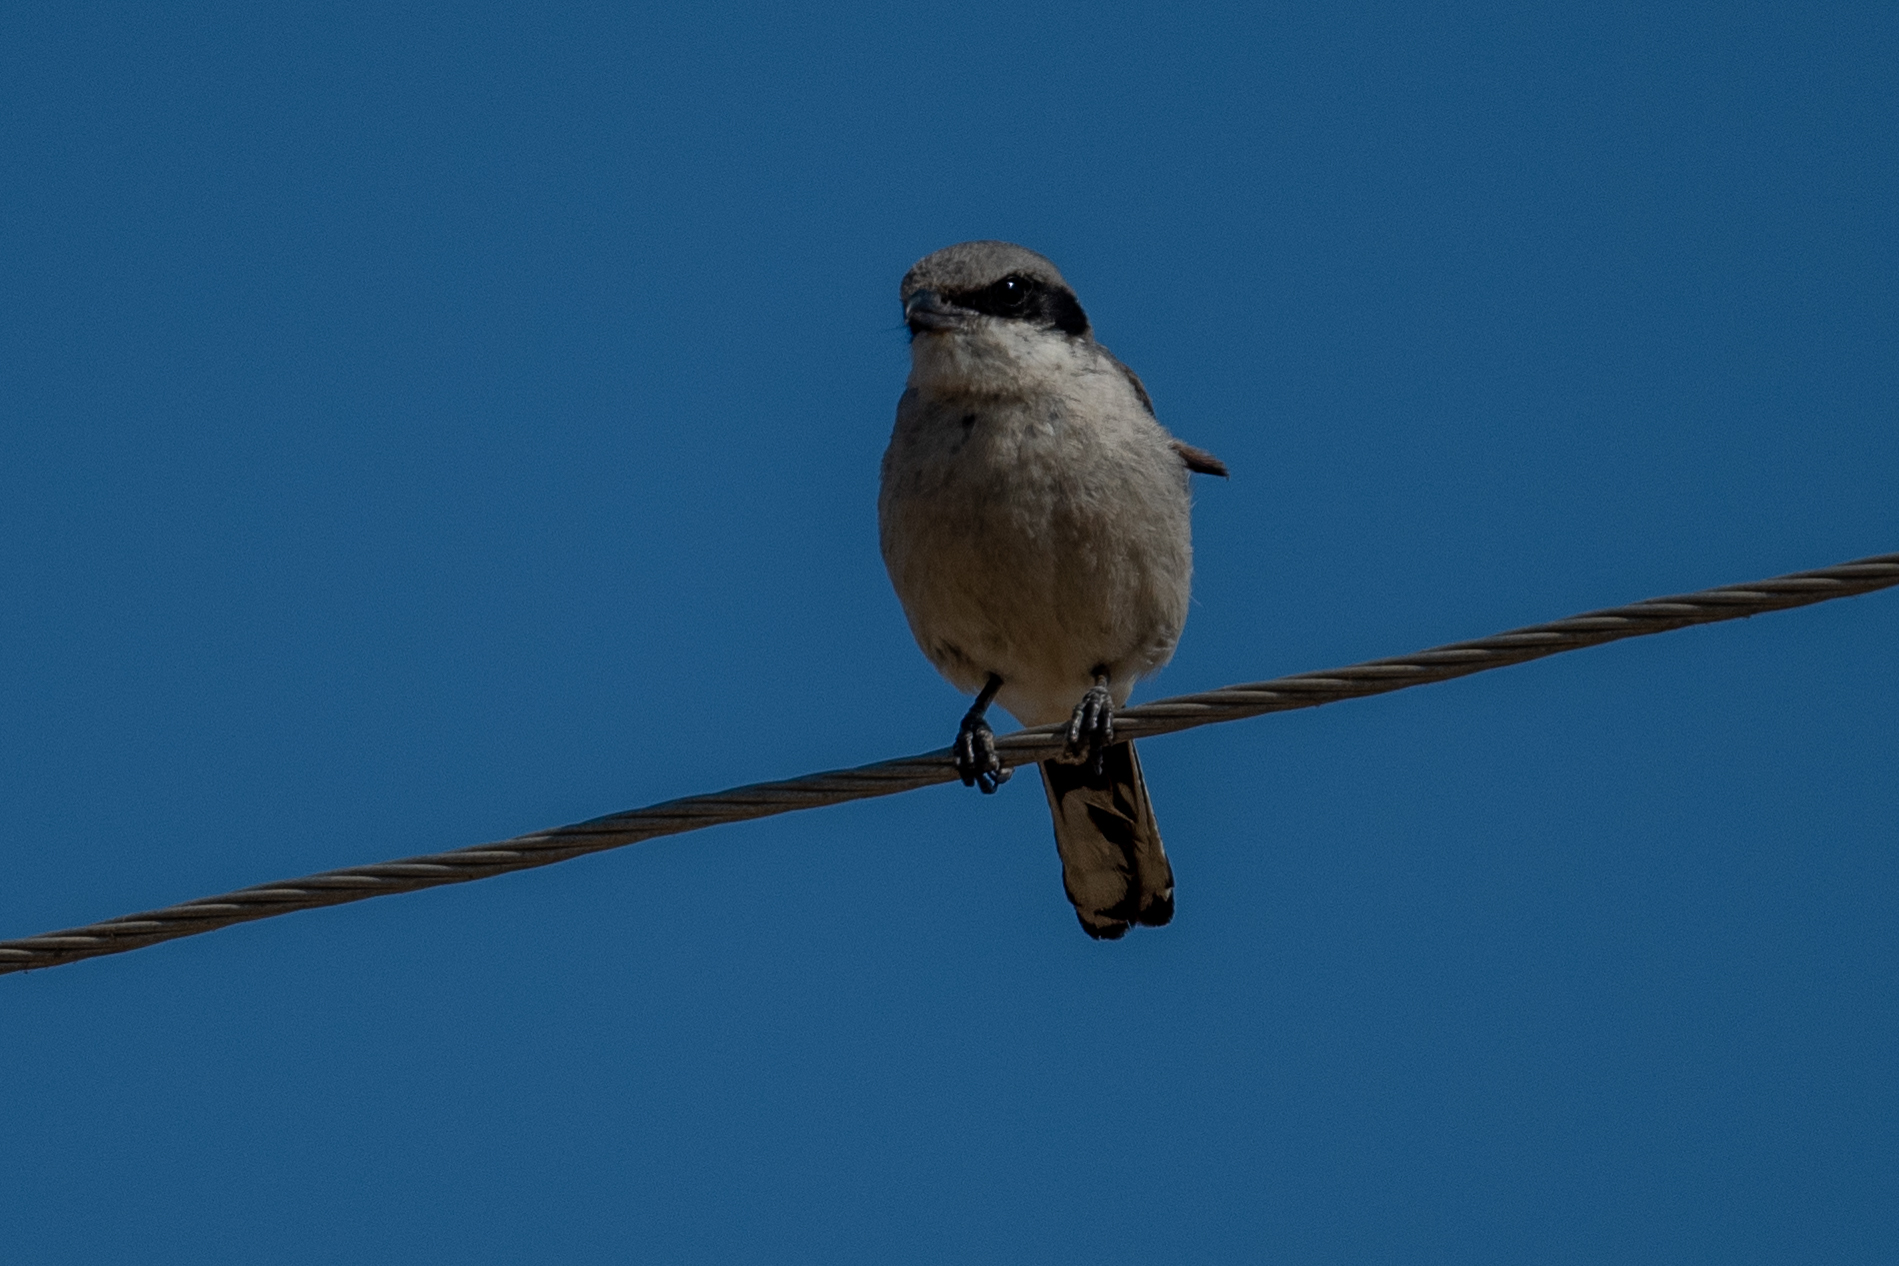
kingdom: Animalia
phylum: Chordata
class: Aves
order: Passeriformes
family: Laniidae
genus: Lanius
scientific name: Lanius ludovicianus
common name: Loggerhead shrike
